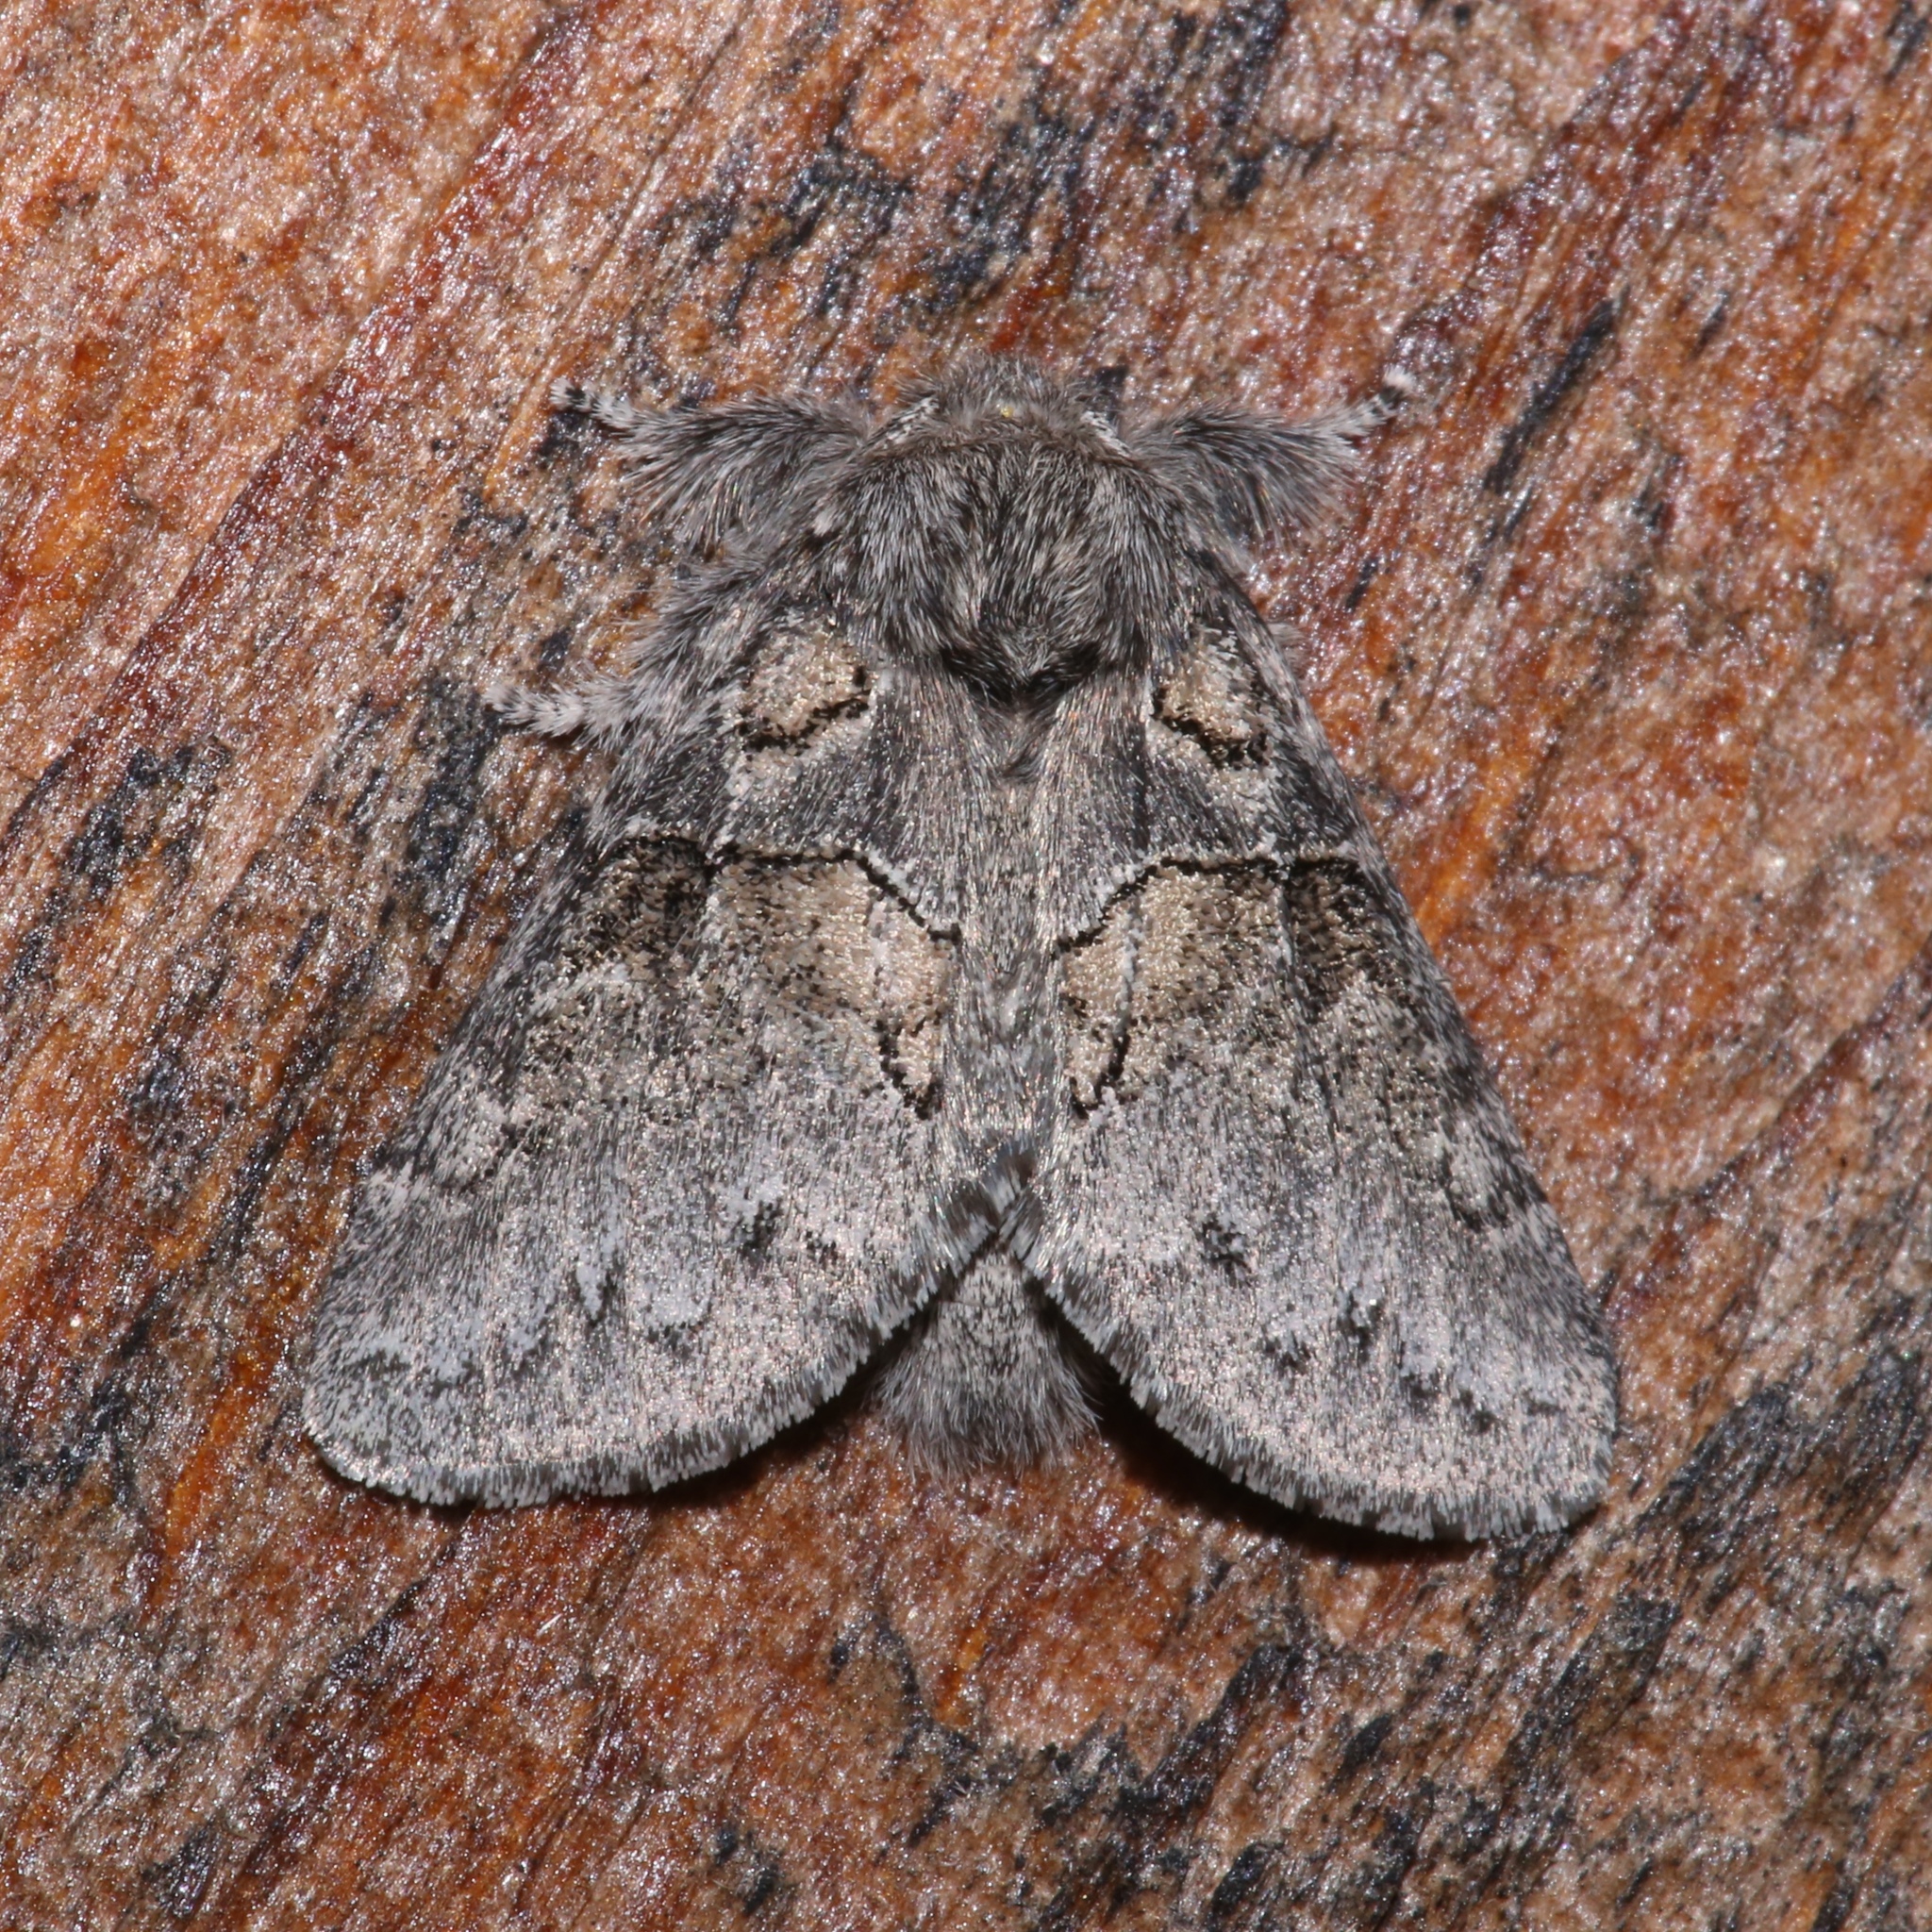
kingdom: Animalia
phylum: Arthropoda
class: Insecta
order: Lepidoptera
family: Notodontidae
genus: Gluphisia
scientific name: Gluphisia septentrionis
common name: Common gluphisia
